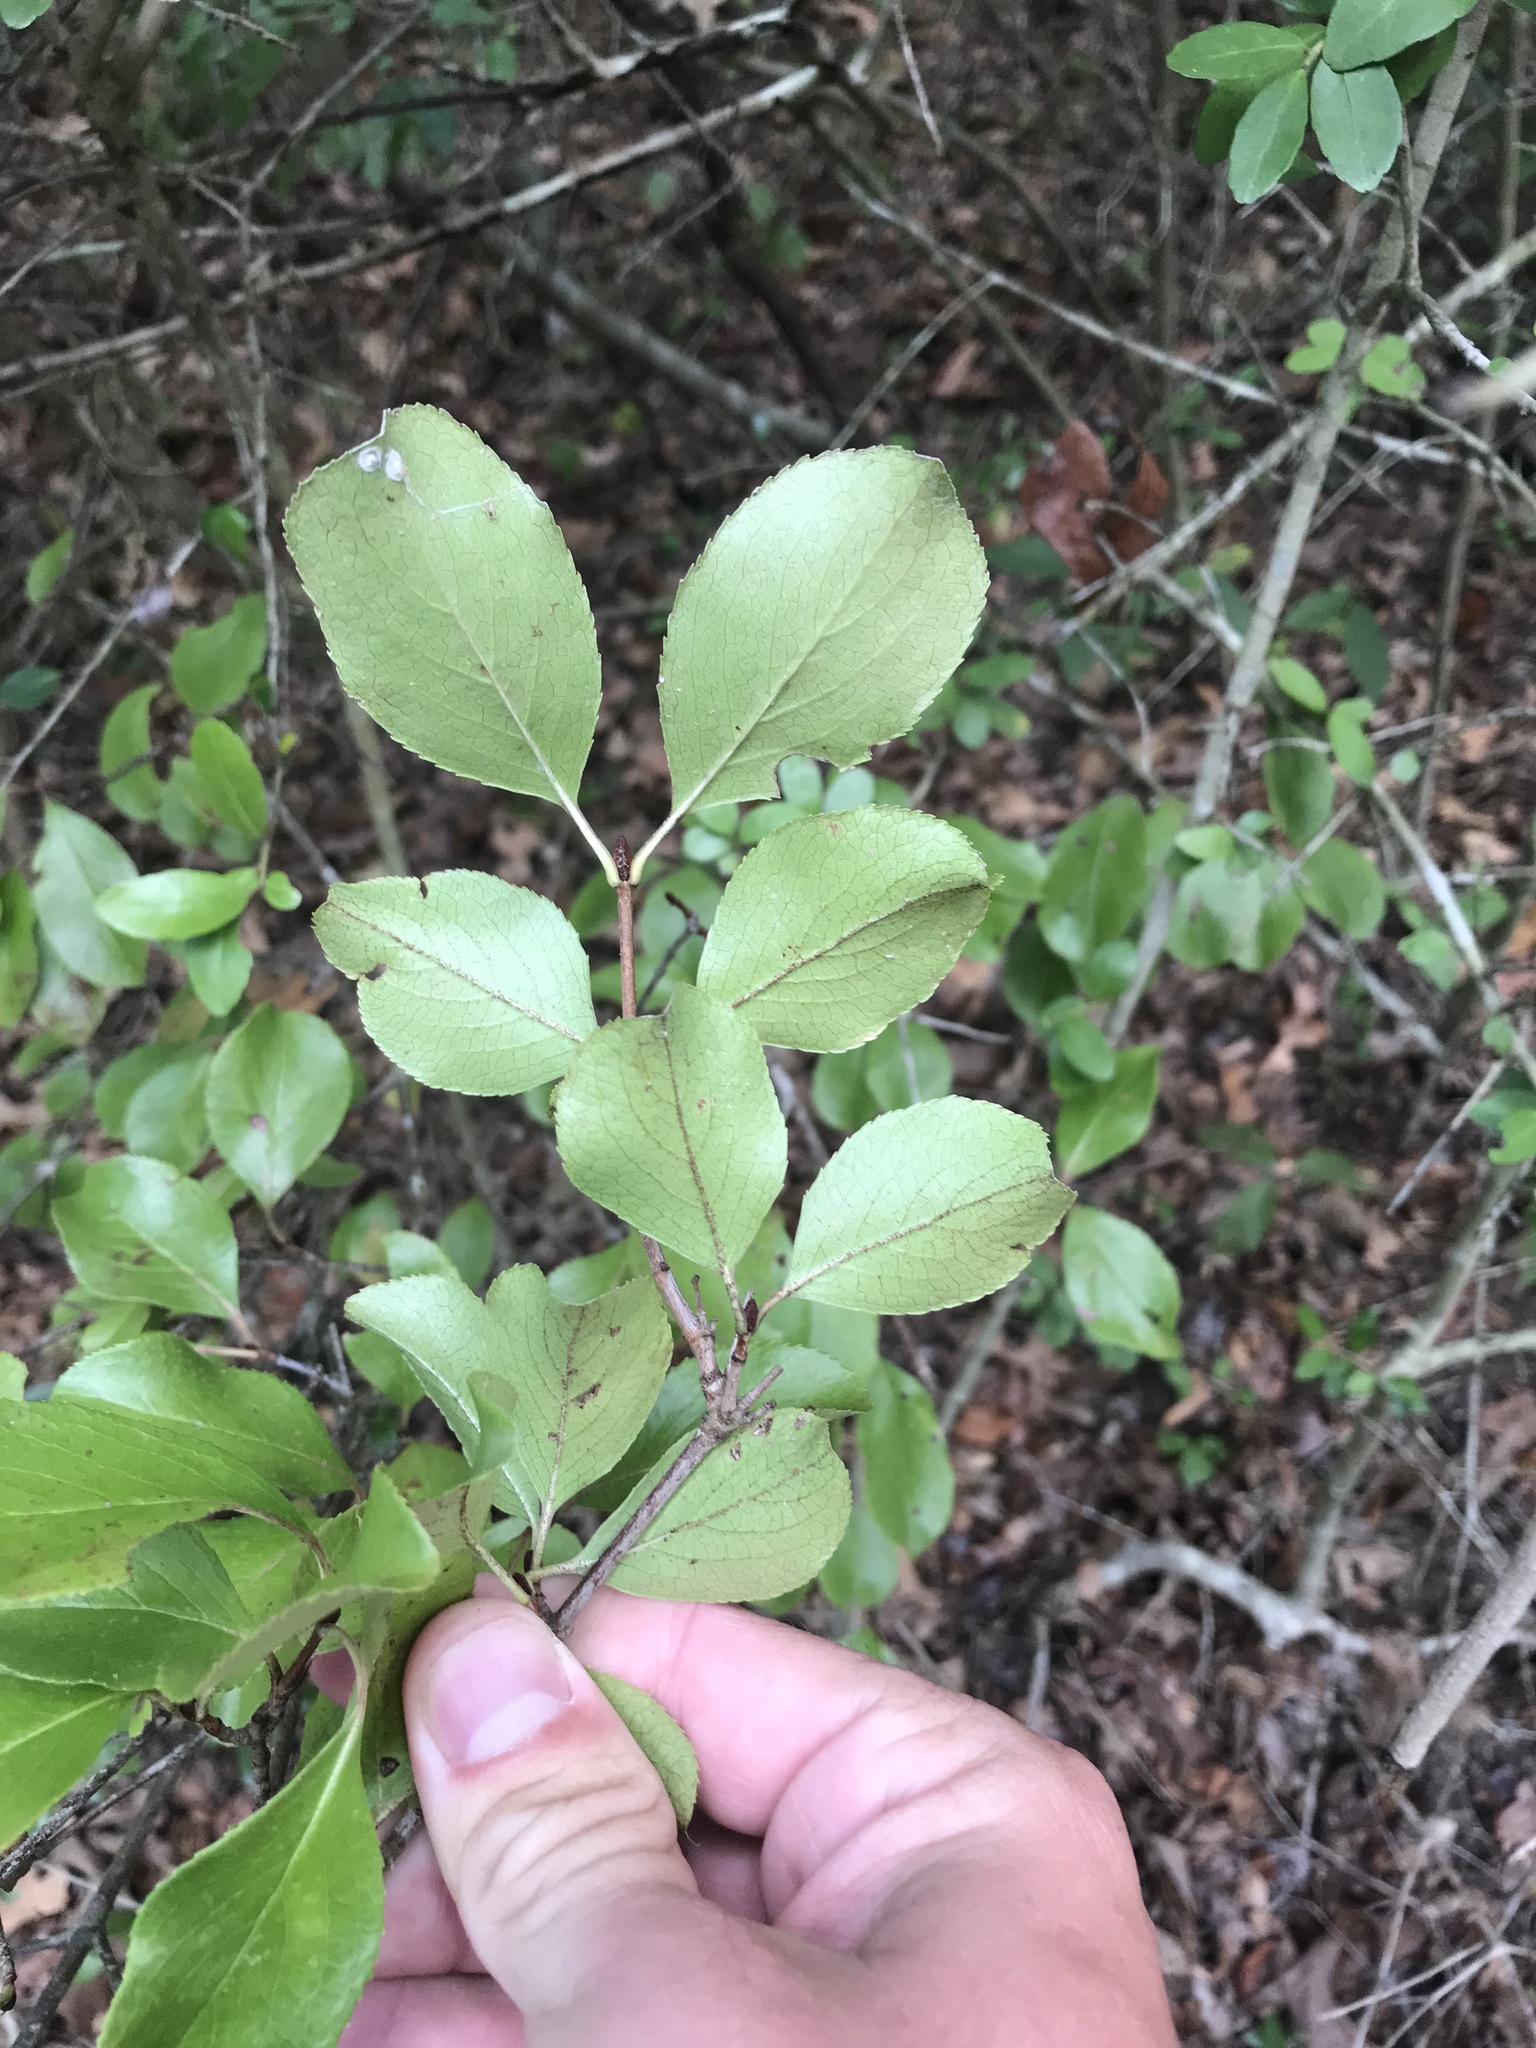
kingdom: Plantae
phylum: Tracheophyta
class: Magnoliopsida
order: Dipsacales
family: Viburnaceae
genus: Viburnum
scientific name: Viburnum rufidulum
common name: Blue haw
